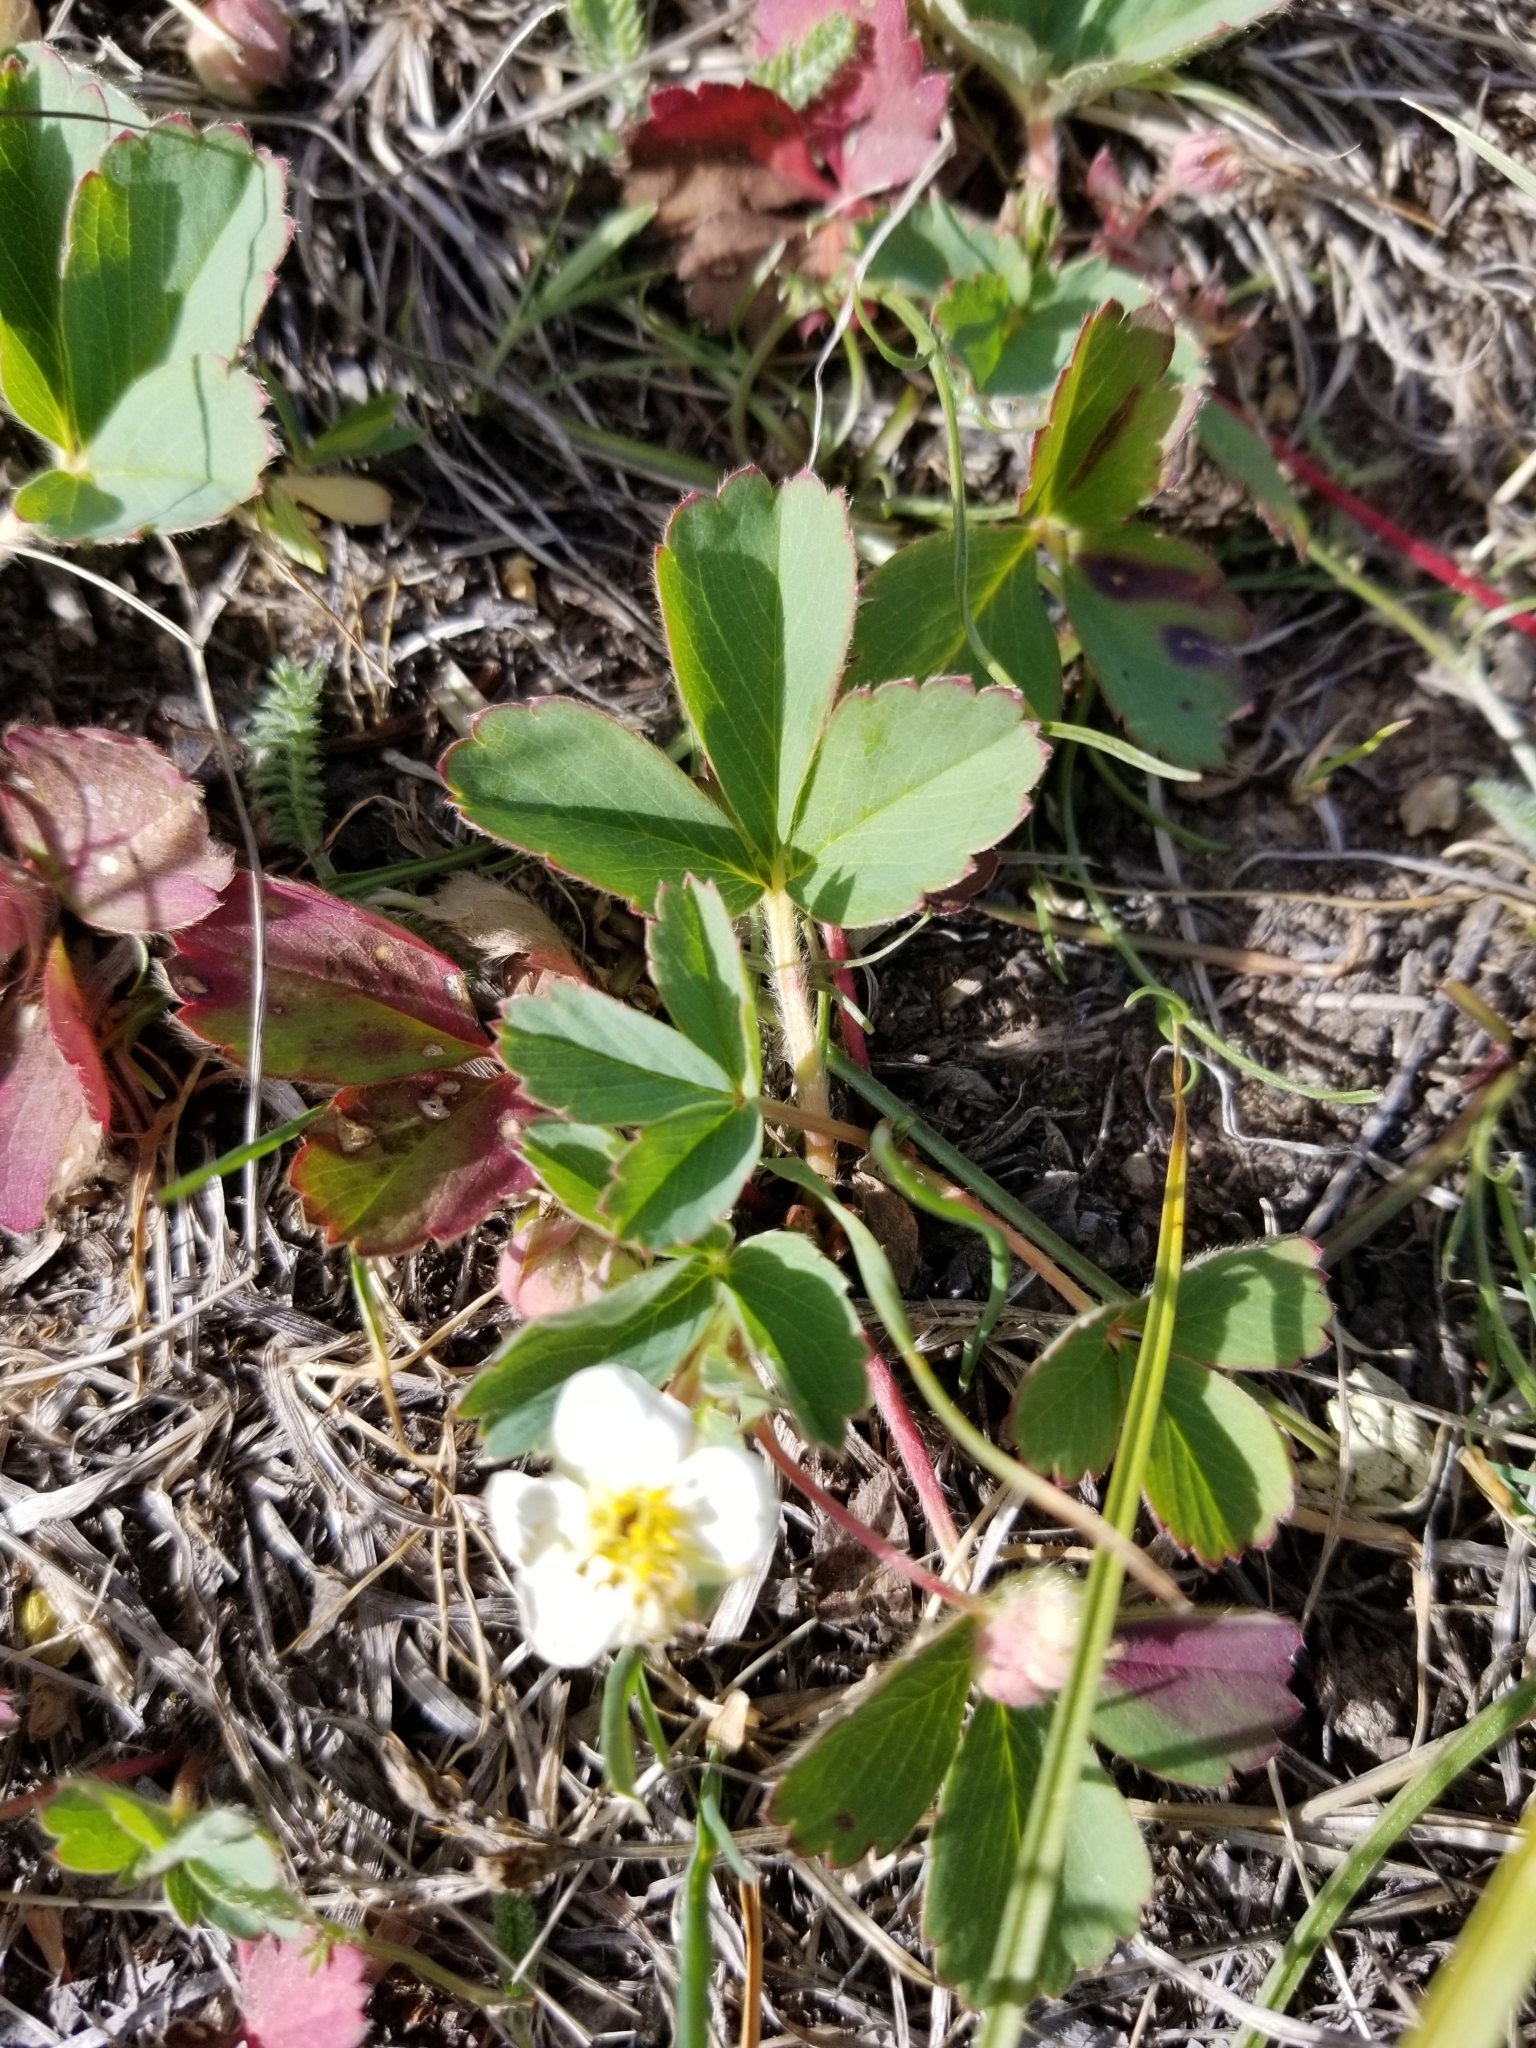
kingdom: Plantae
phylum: Tracheophyta
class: Magnoliopsida
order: Rosales
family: Rosaceae
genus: Fragaria
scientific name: Fragaria virginiana
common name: Thickleaved wild strawberry
